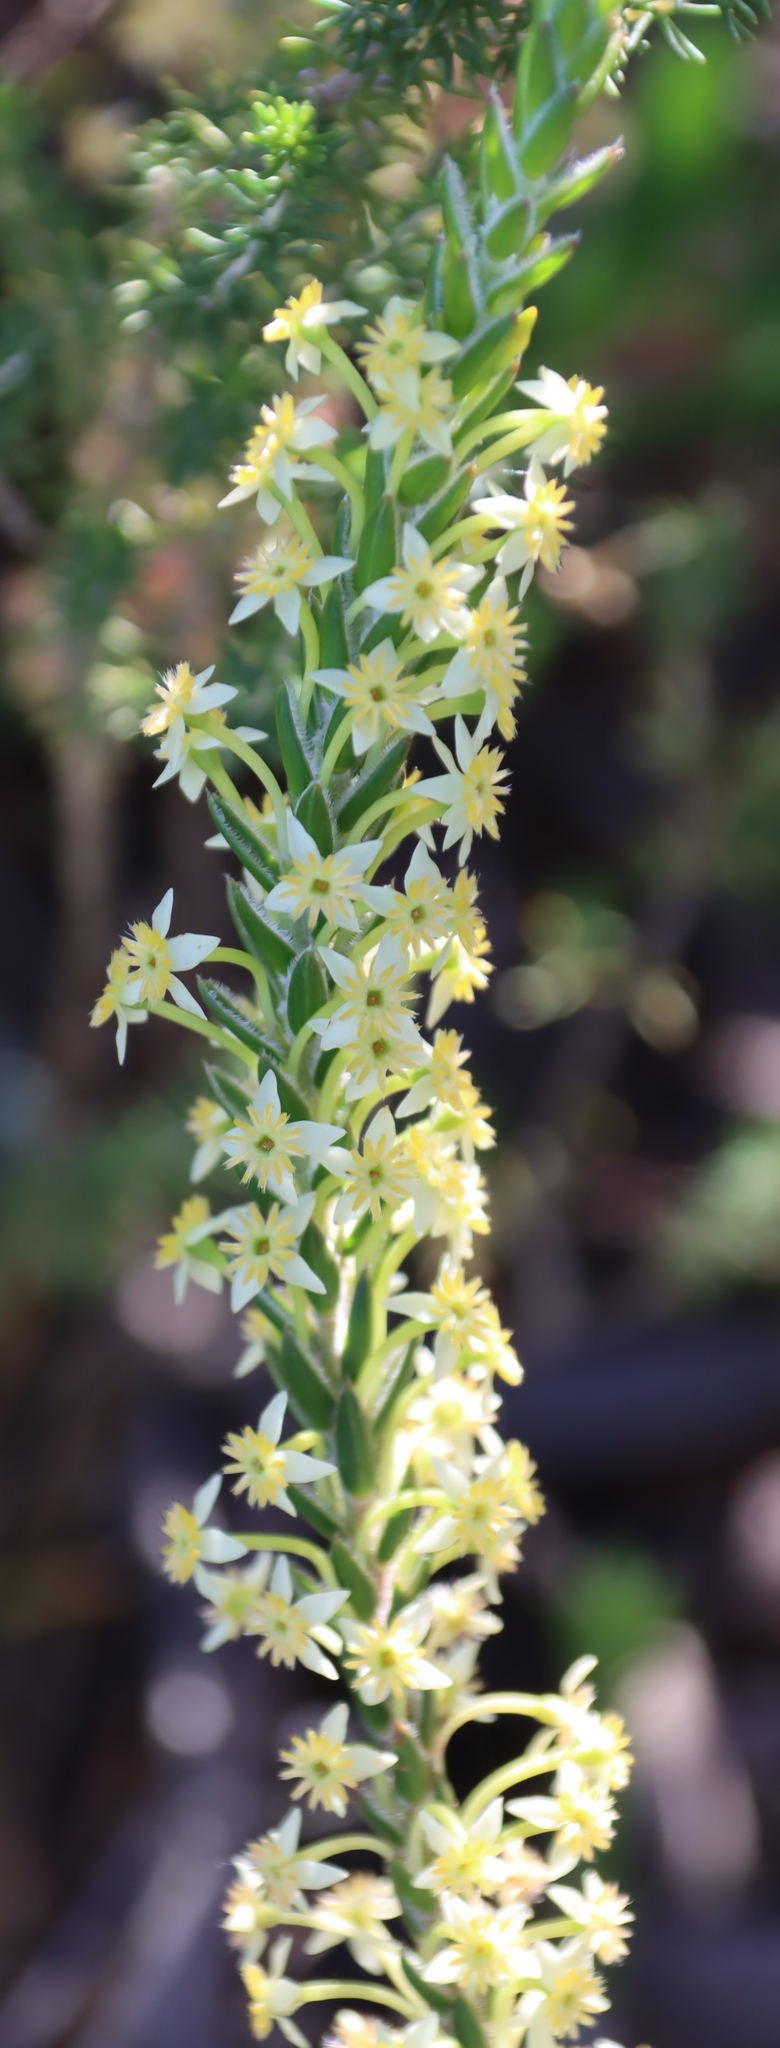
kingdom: Plantae
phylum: Tracheophyta
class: Magnoliopsida
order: Malvales
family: Thymelaeaceae
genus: Struthiola
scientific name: Struthiola argentea
